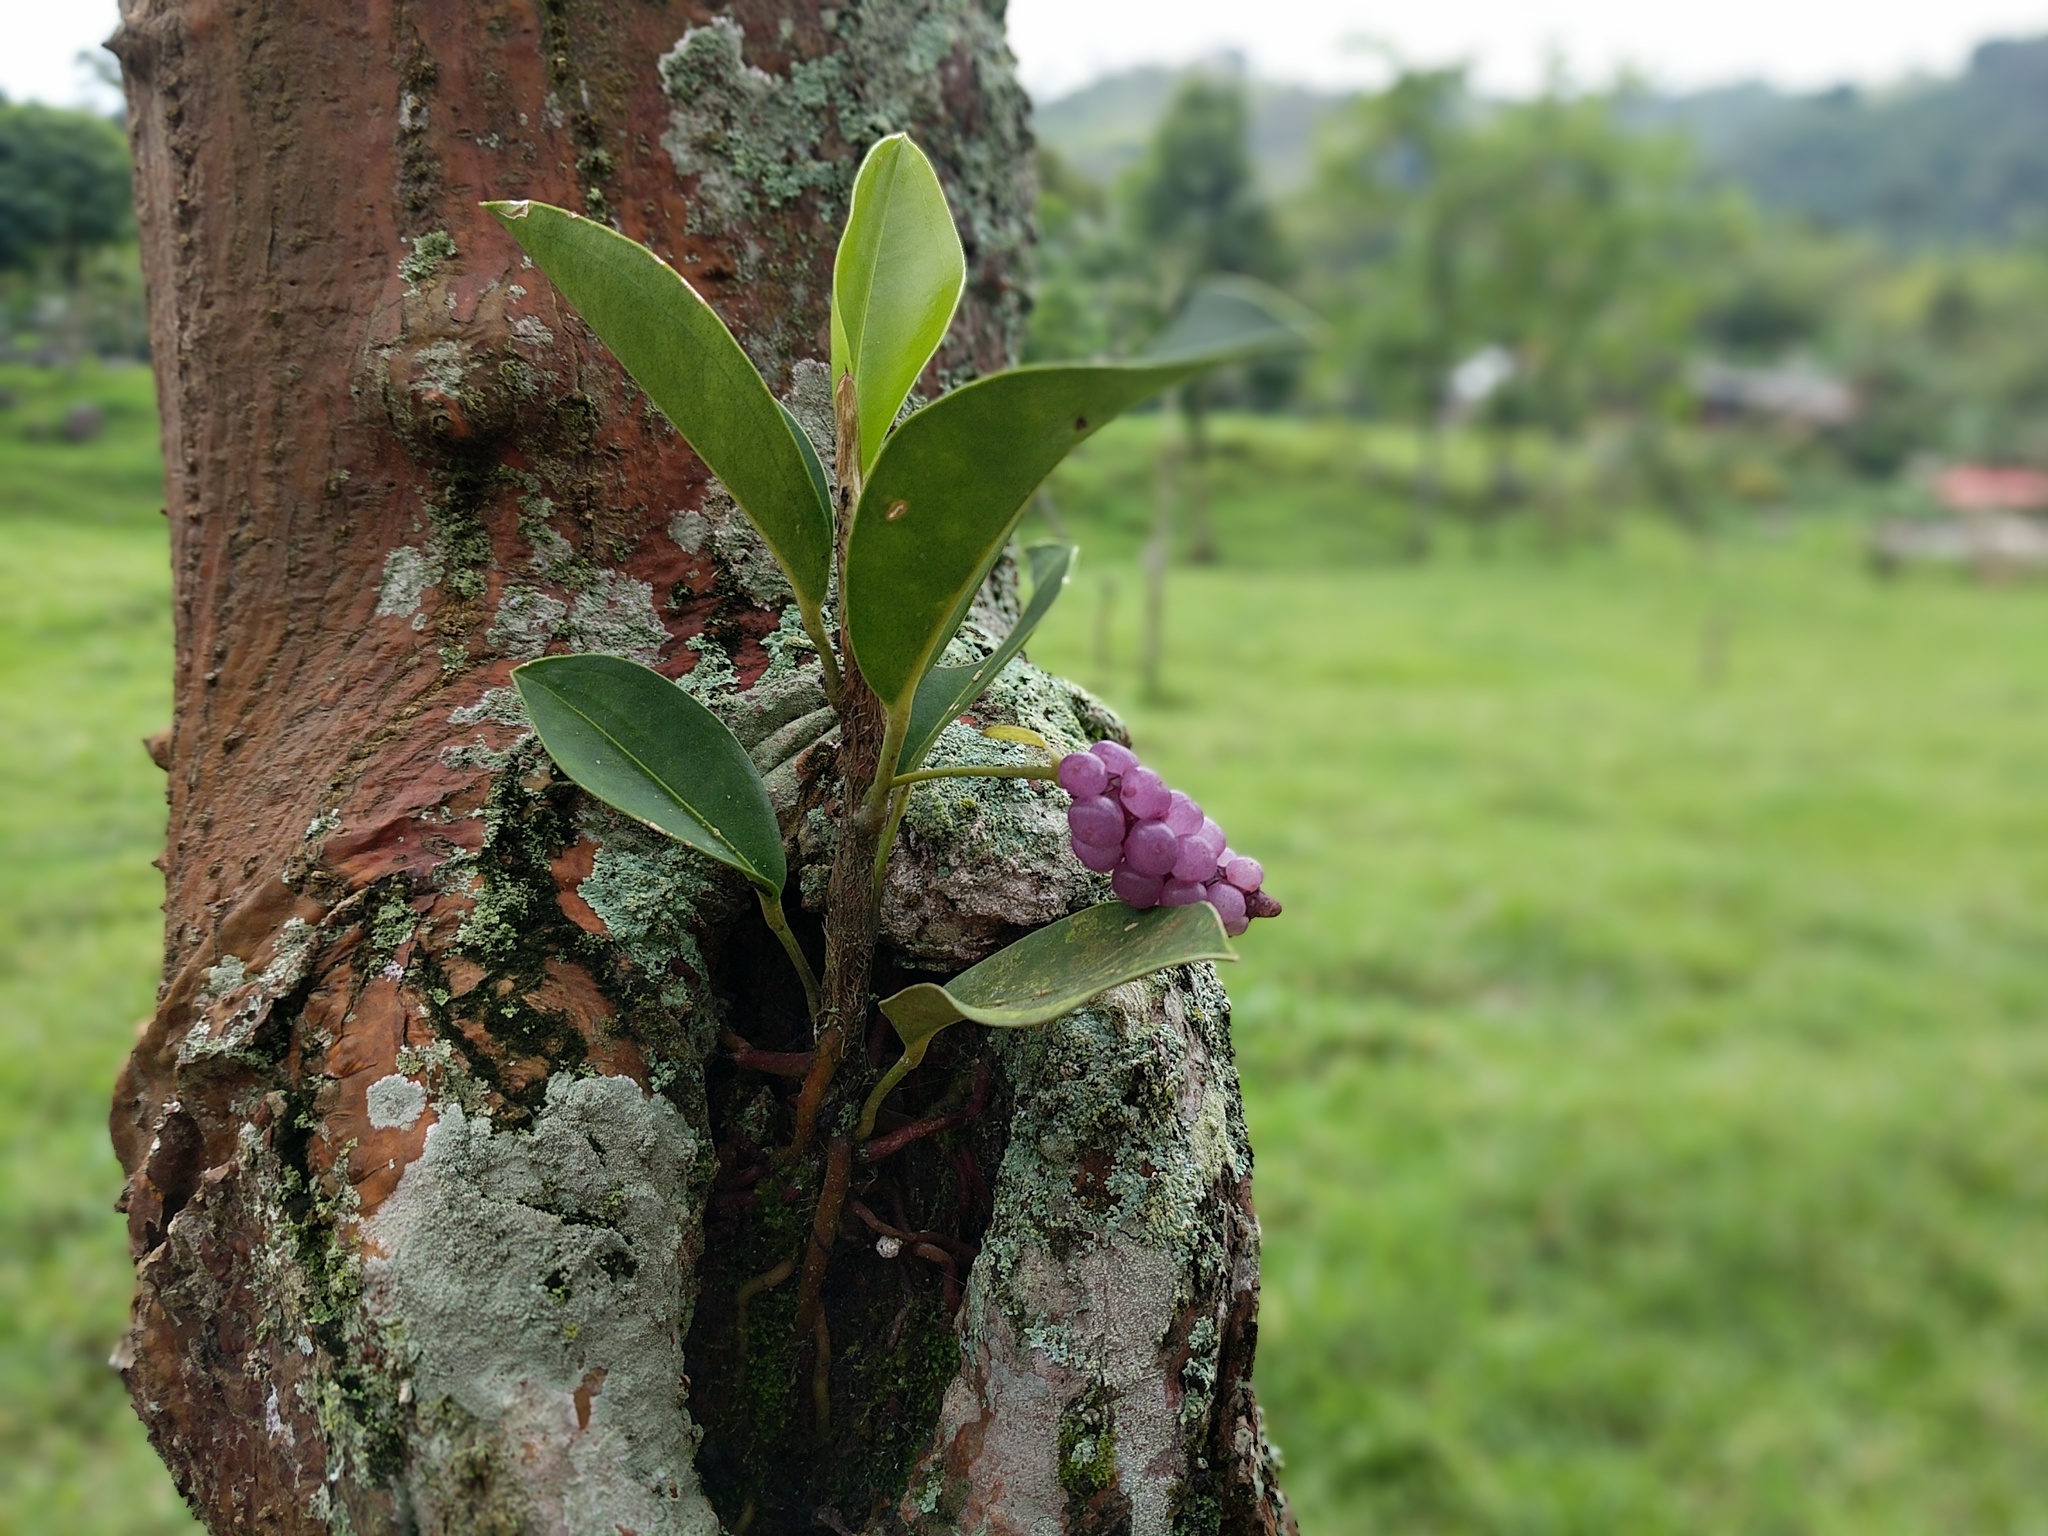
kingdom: Plantae
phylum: Tracheophyta
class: Liliopsida
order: Alismatales
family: Araceae
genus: Anthurium
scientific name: Anthurium scandens
